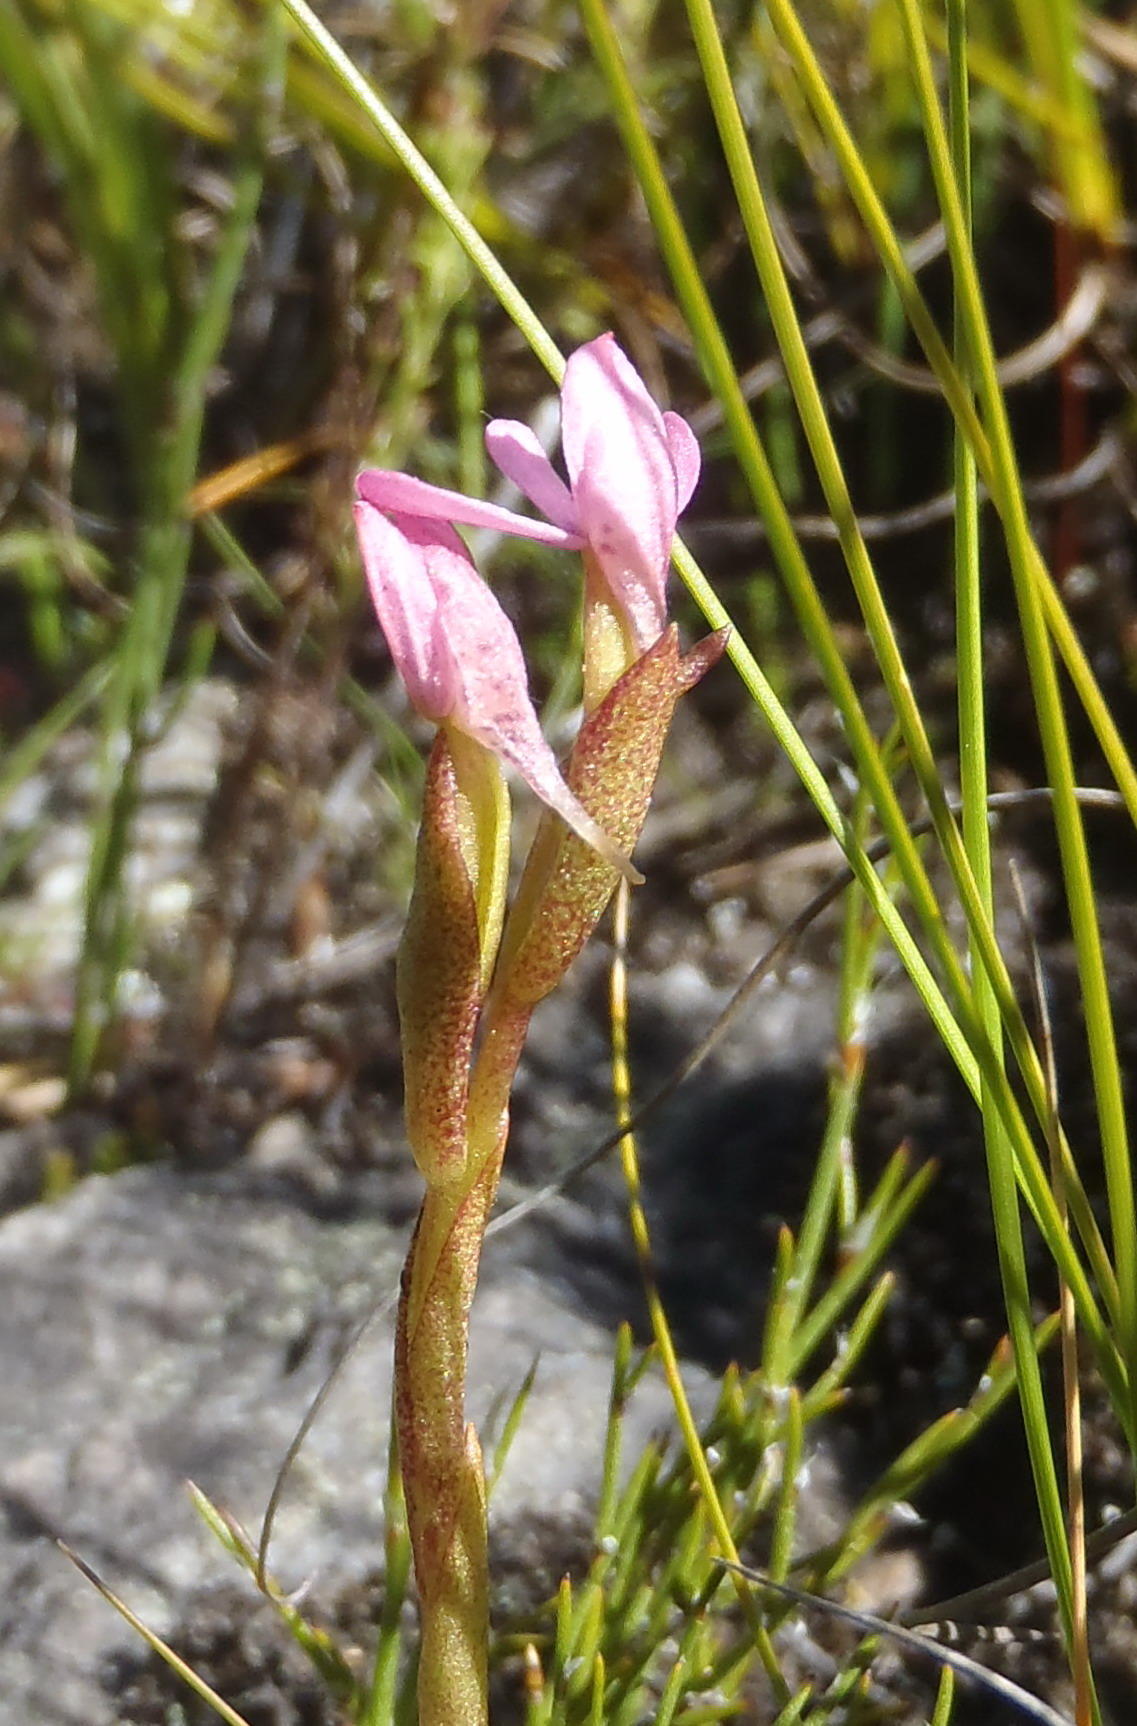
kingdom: Plantae
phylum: Tracheophyta
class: Liliopsida
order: Asparagales
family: Orchidaceae
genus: Disa
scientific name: Disa vaginata
